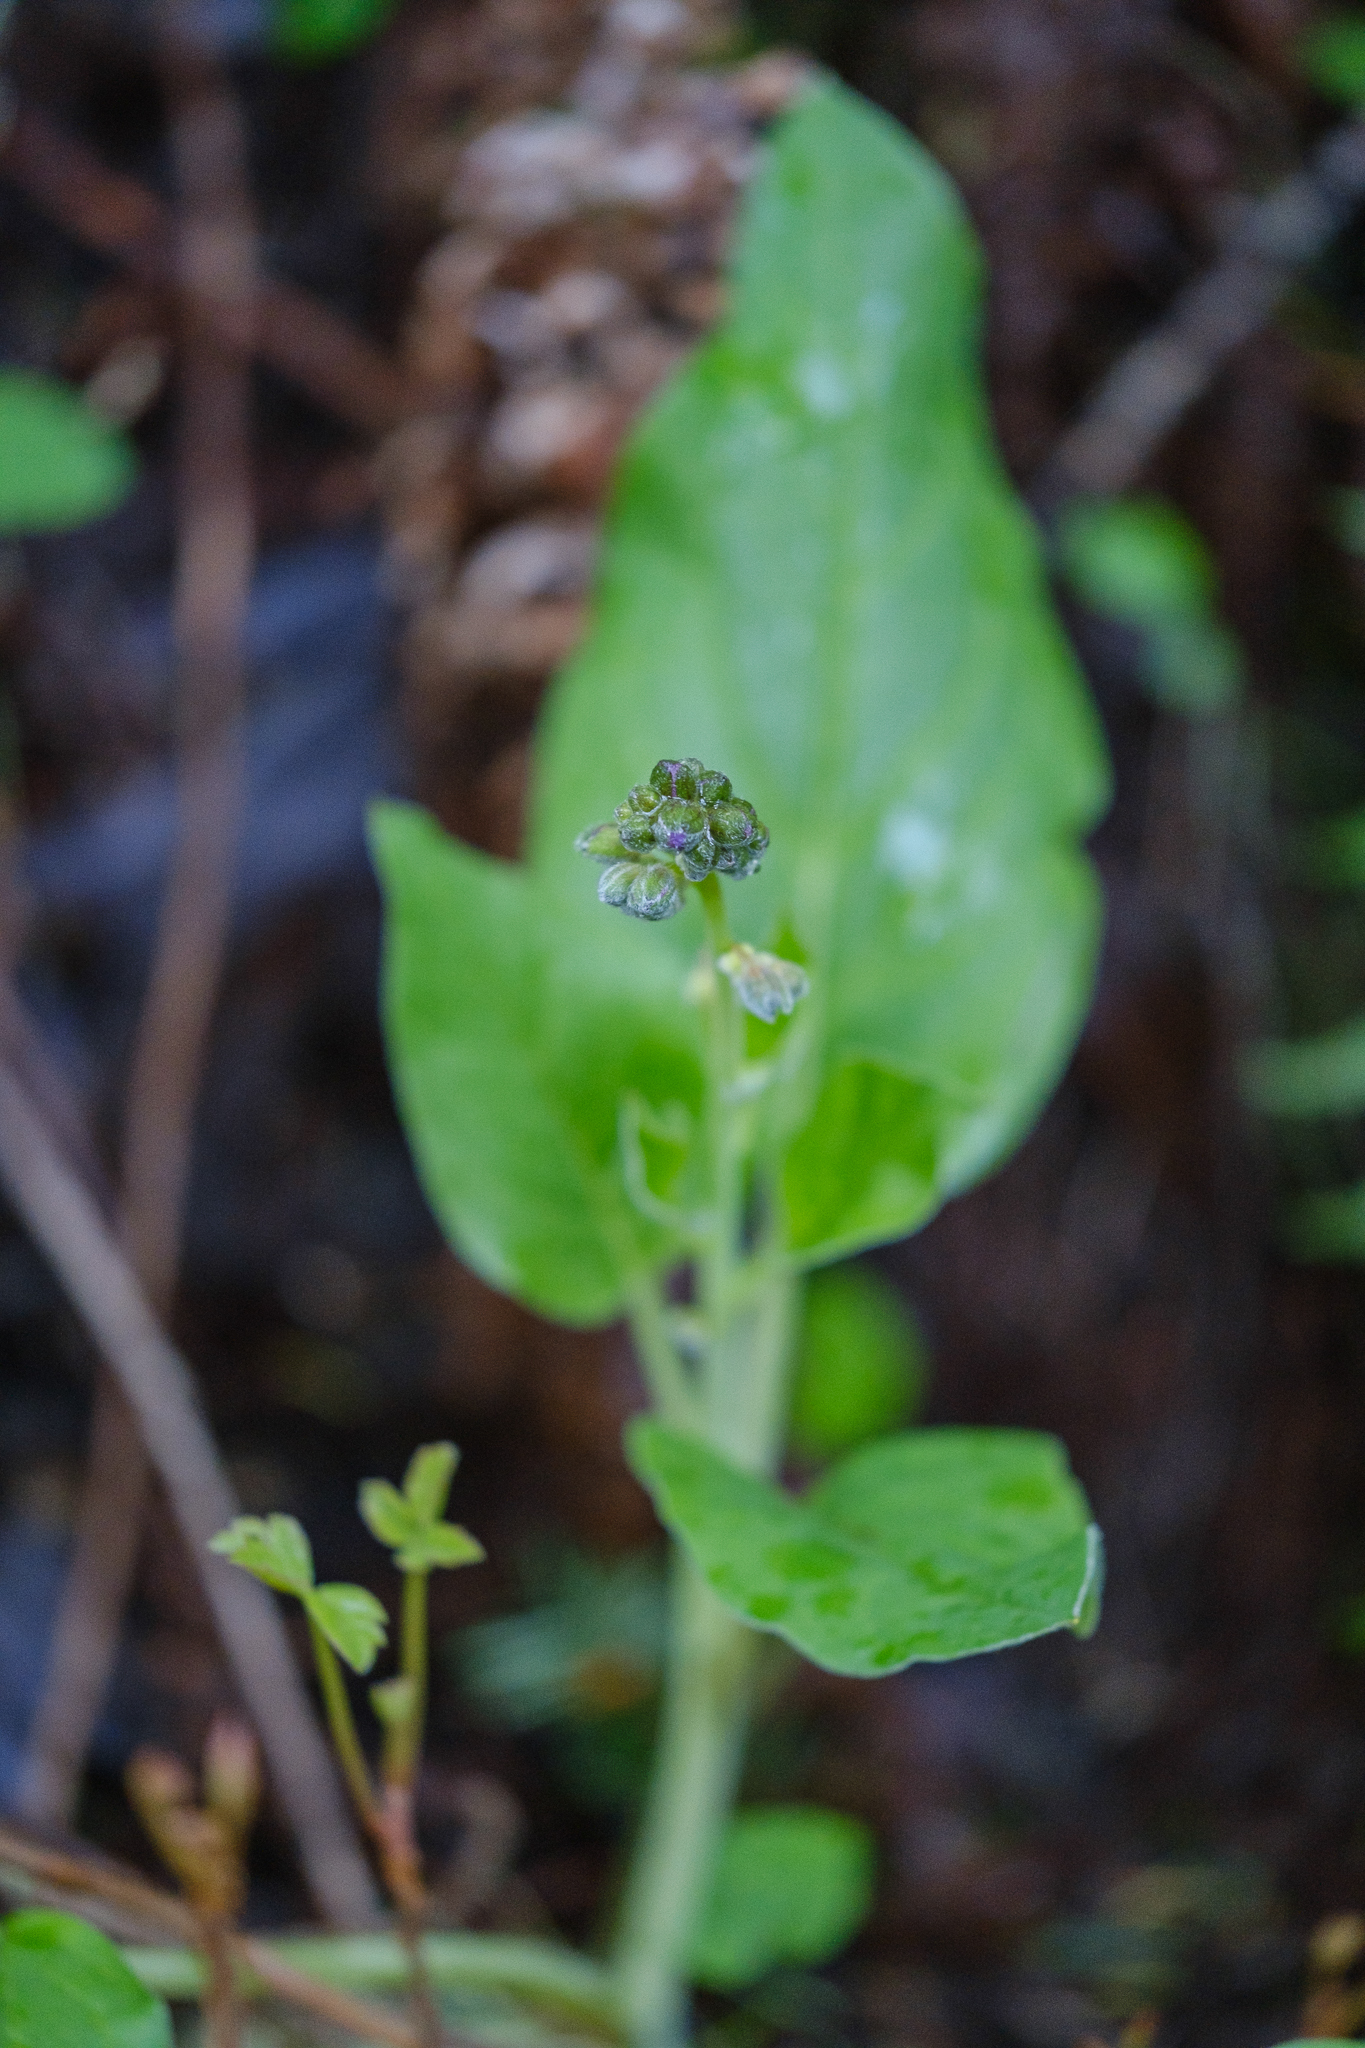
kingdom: Plantae
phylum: Tracheophyta
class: Magnoliopsida
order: Boraginales
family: Boraginaceae
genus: Adelinia
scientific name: Adelinia grande
